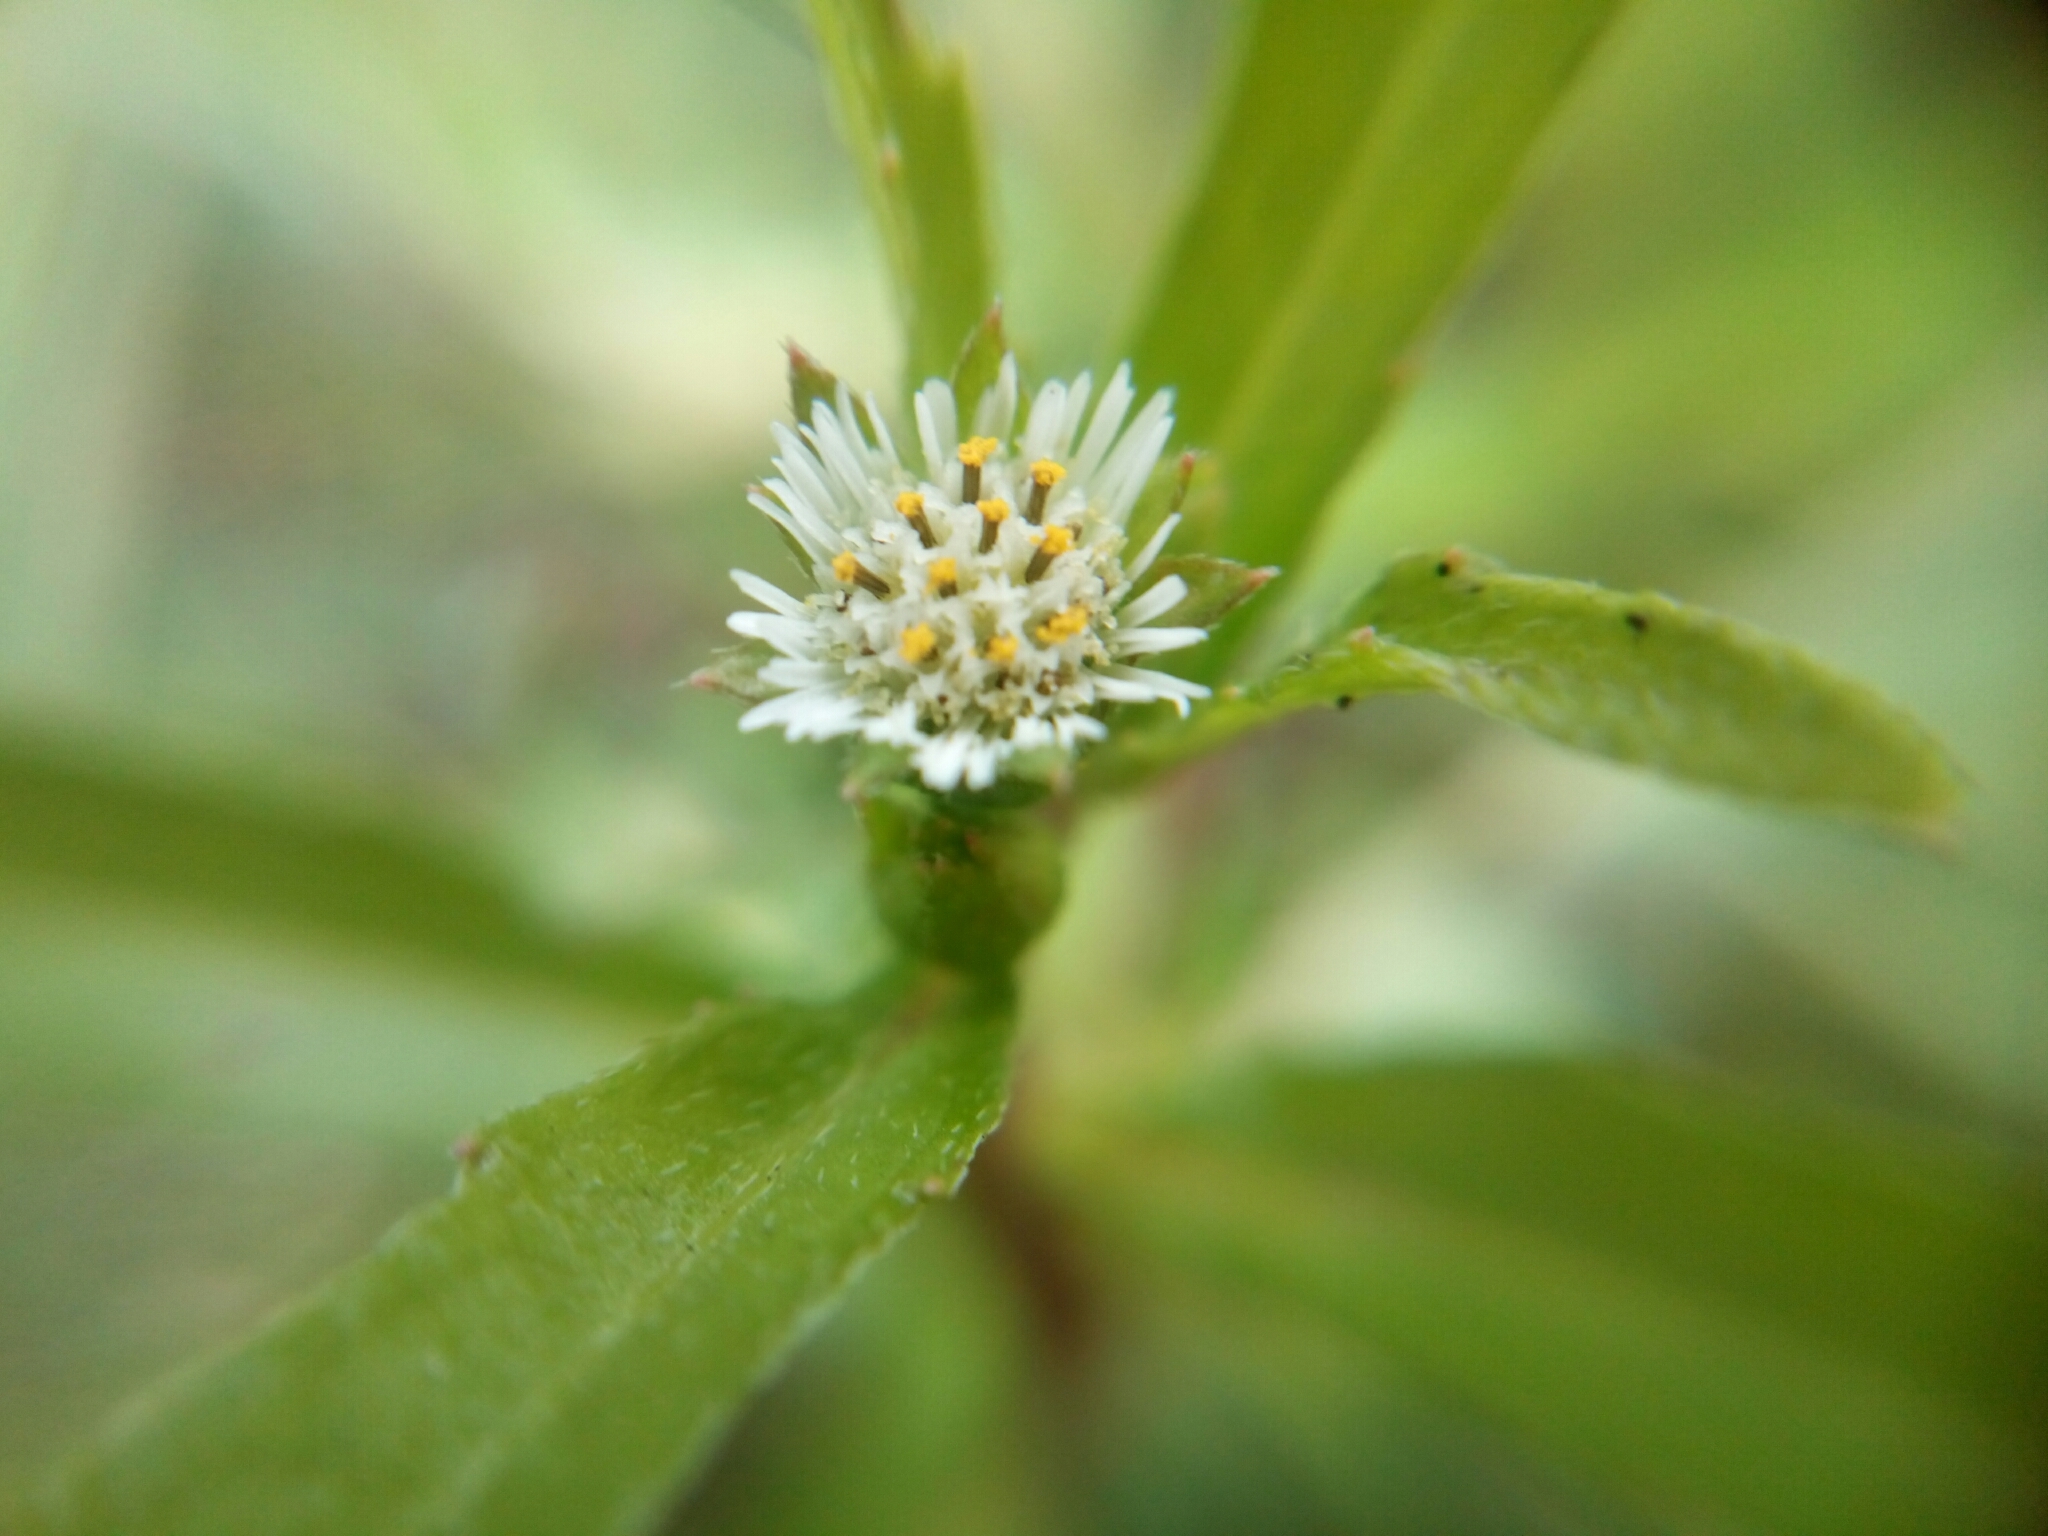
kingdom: Plantae
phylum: Tracheophyta
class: Magnoliopsida
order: Asterales
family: Asteraceae
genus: Eclipta
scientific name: Eclipta prostrata
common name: False daisy
